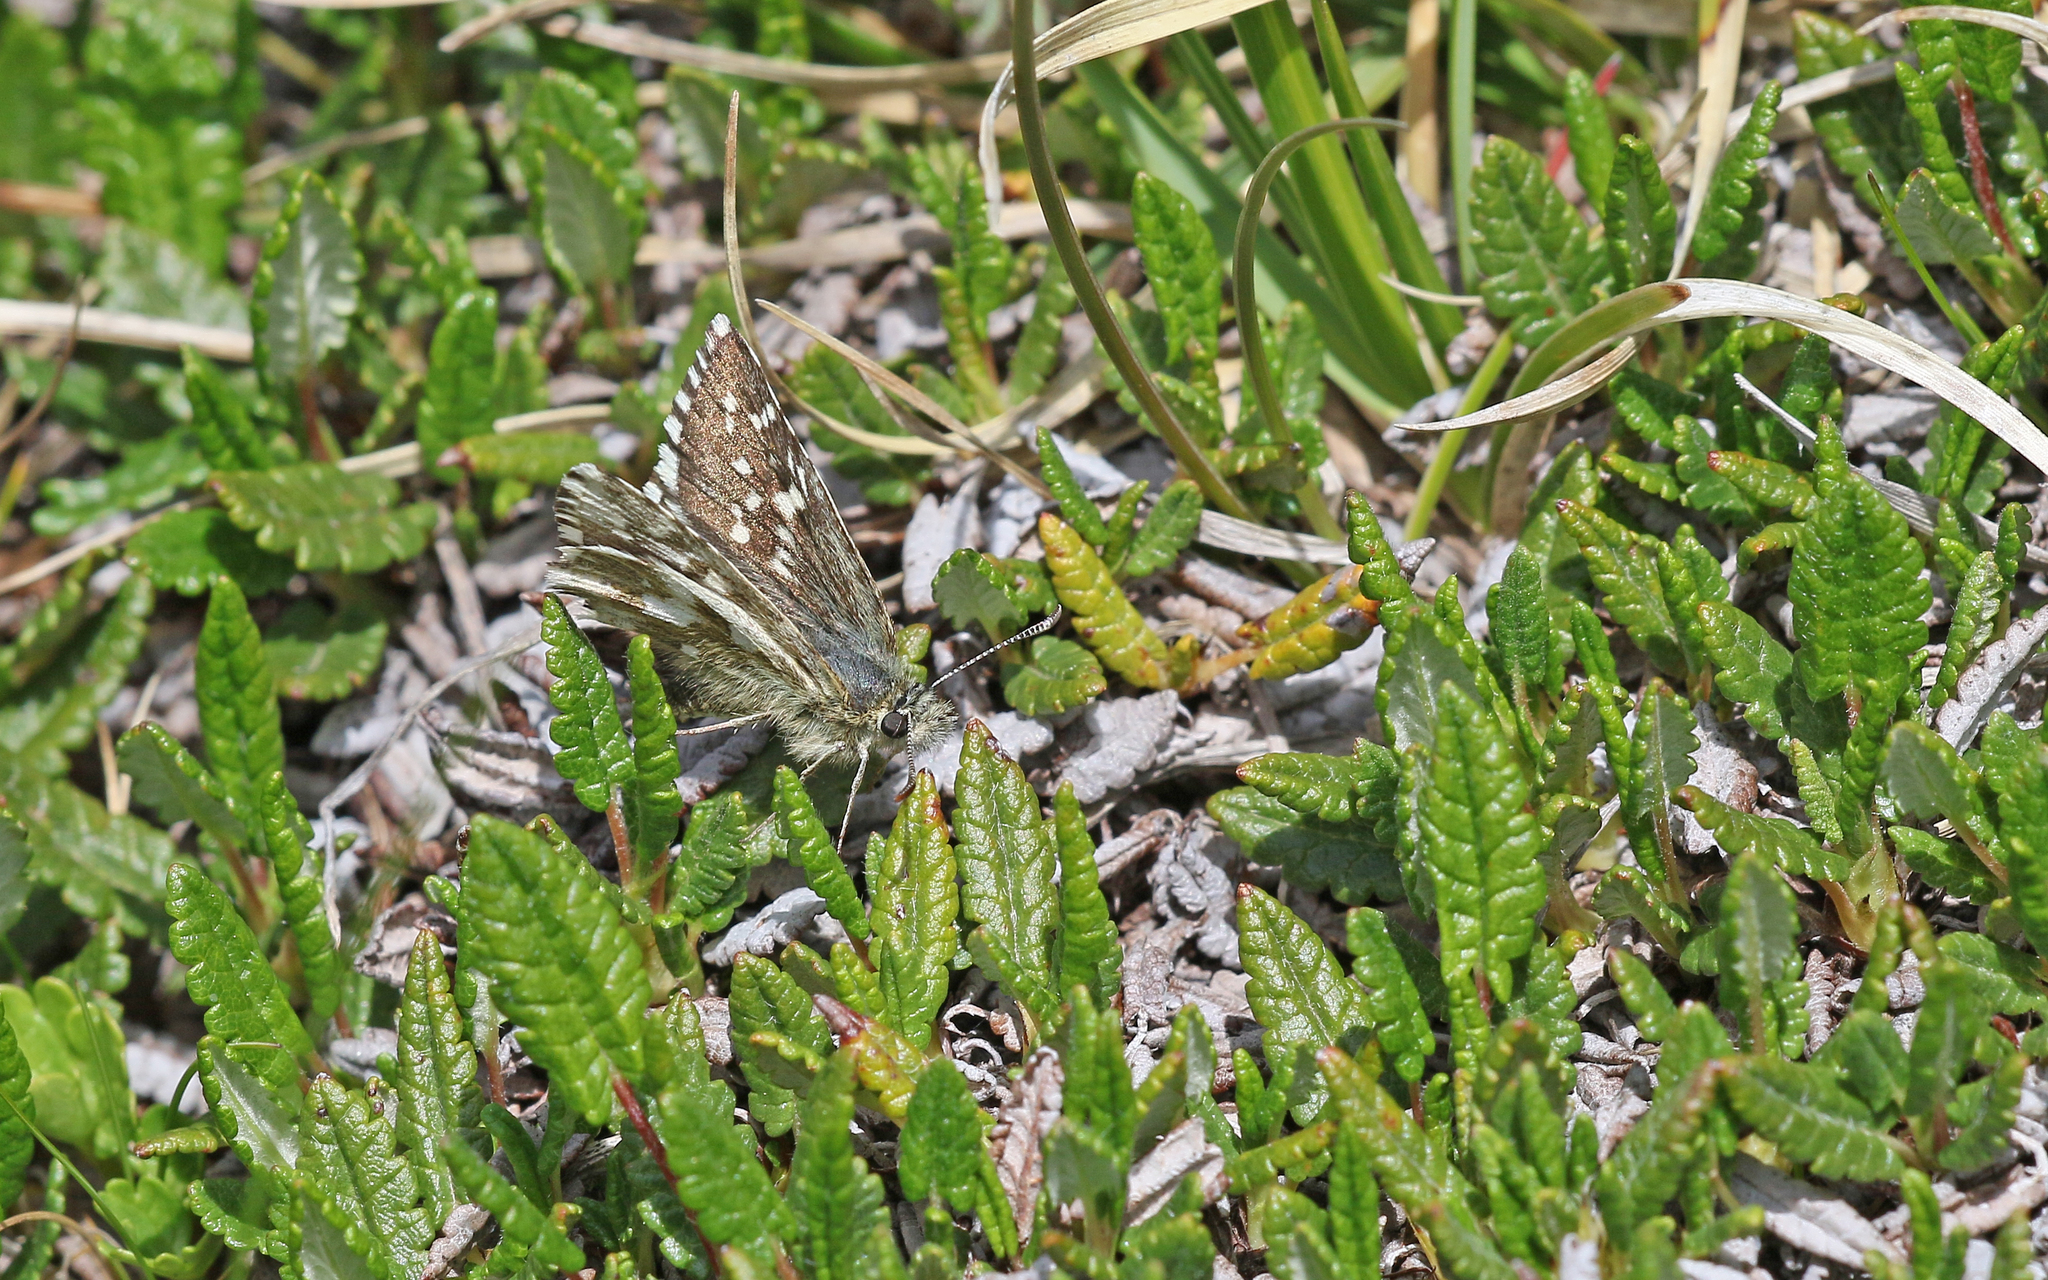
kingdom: Animalia
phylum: Arthropoda
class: Insecta
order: Lepidoptera
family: Hesperiidae
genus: Pyrgus
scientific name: Pyrgus andromedae
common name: Alpine grizzled skipper
